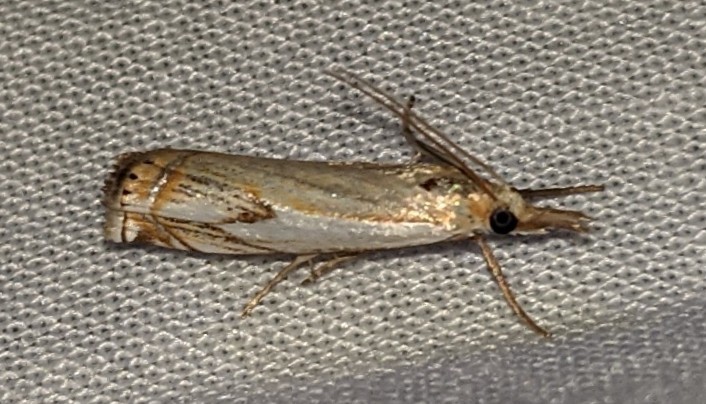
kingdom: Animalia
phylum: Arthropoda
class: Insecta
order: Lepidoptera
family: Crambidae
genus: Crambus
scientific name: Crambus agitatellus
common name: Double-banded grass-veneer
